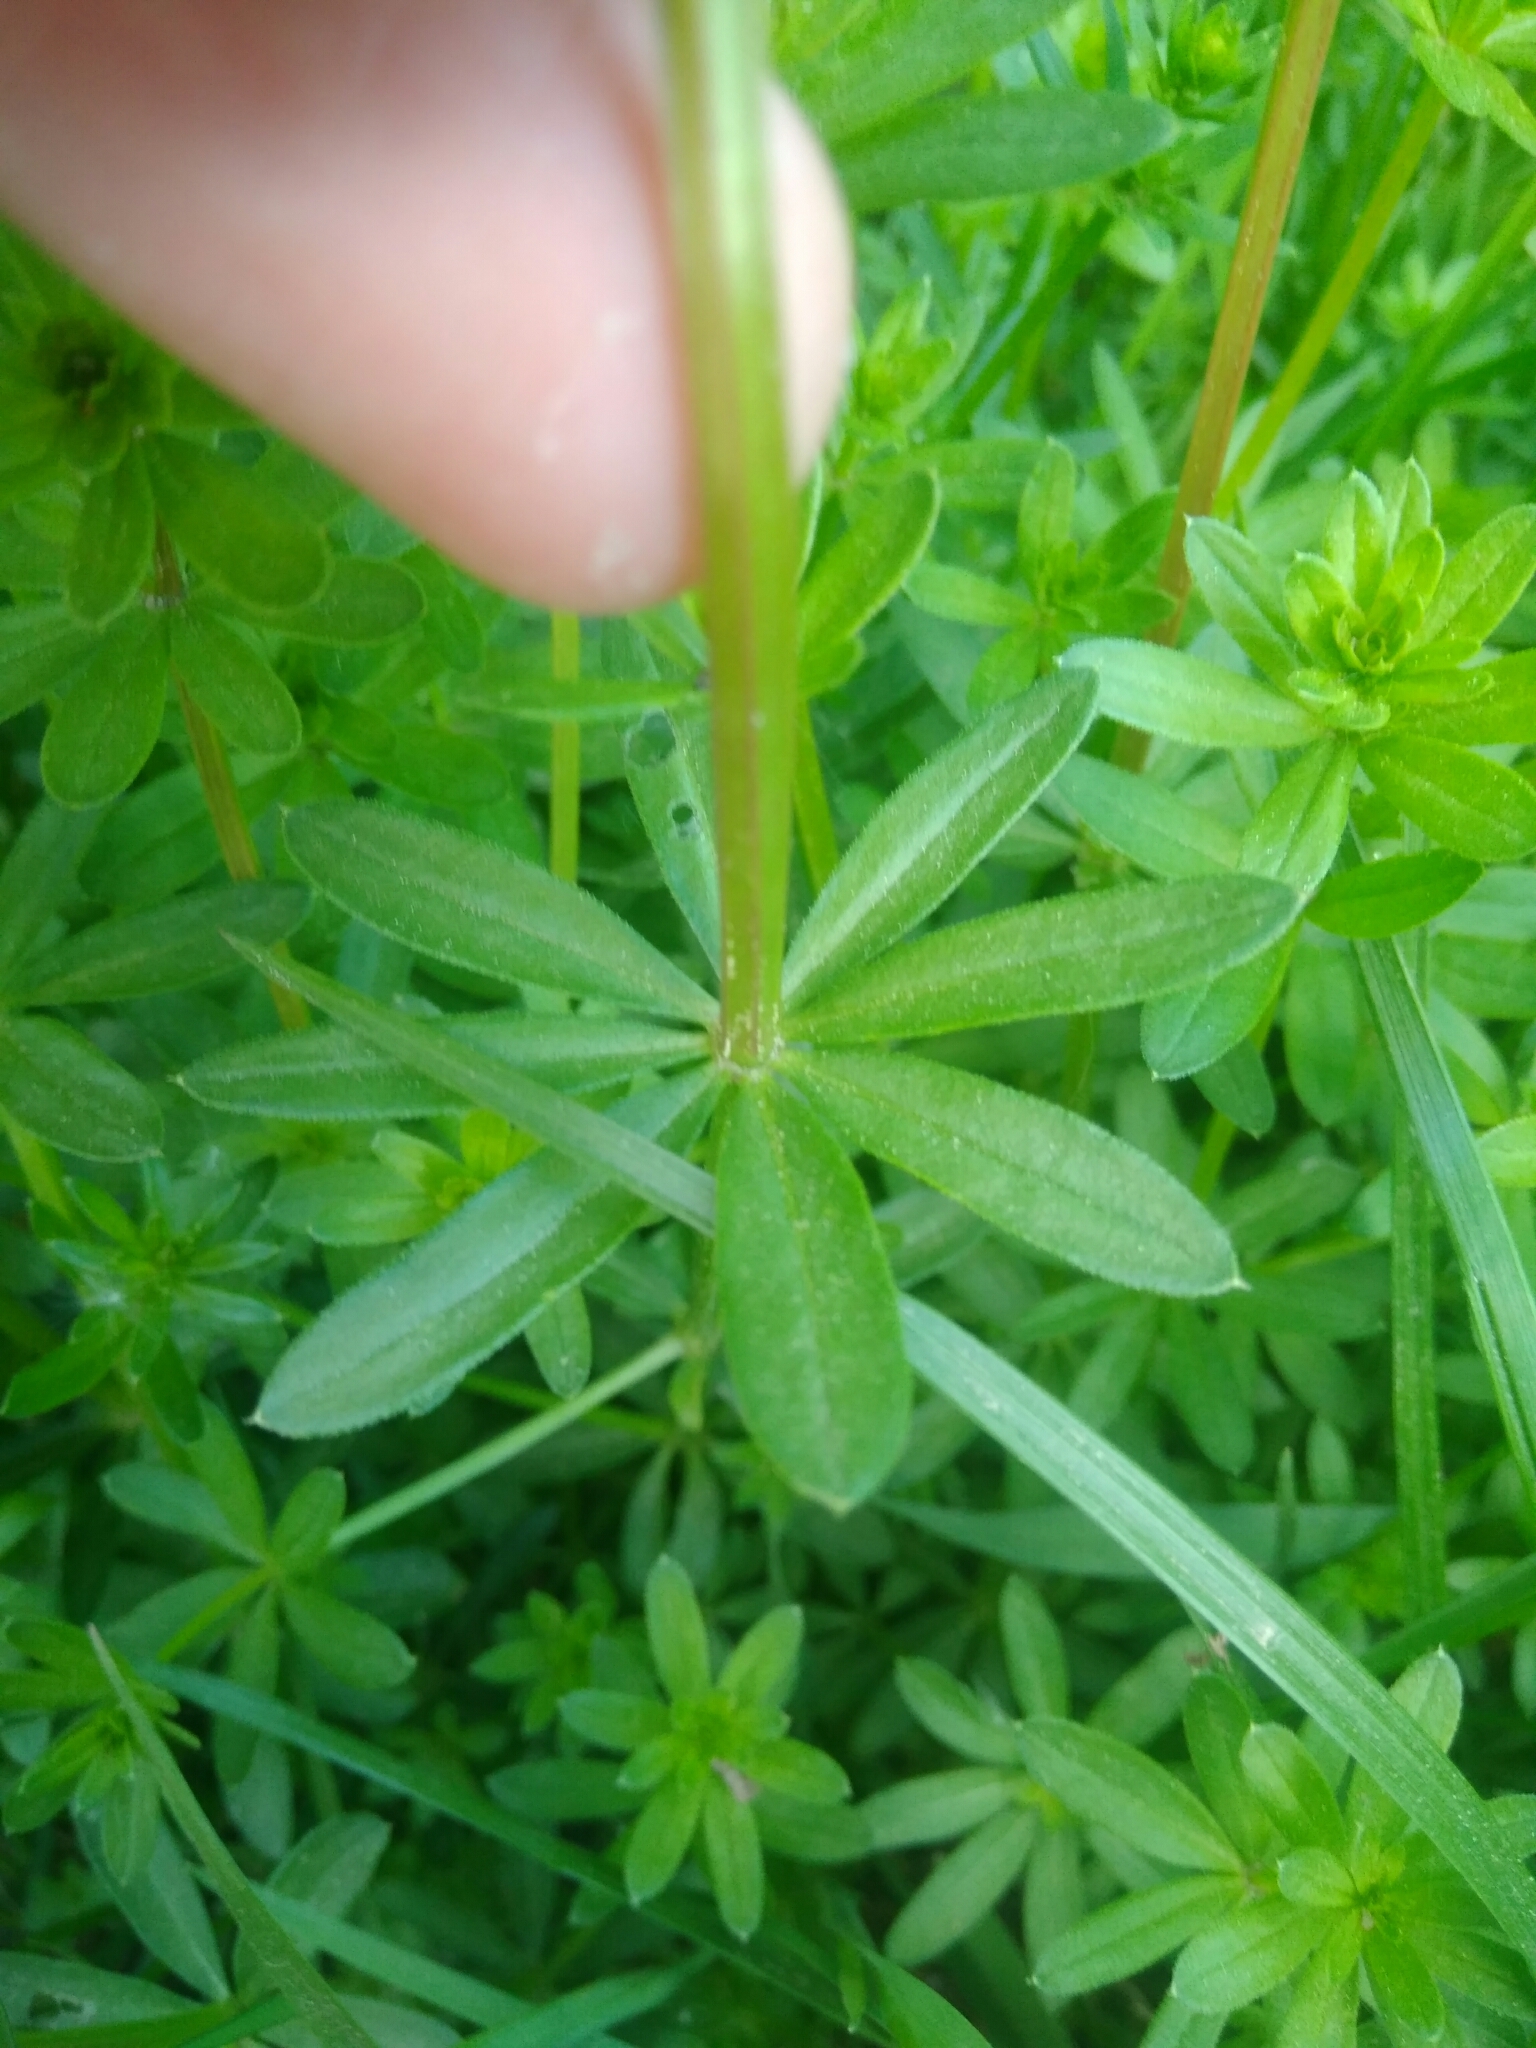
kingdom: Plantae
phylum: Tracheophyta
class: Magnoliopsida
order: Gentianales
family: Rubiaceae
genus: Galium
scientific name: Galium mollugo
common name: Hedge bedstraw
